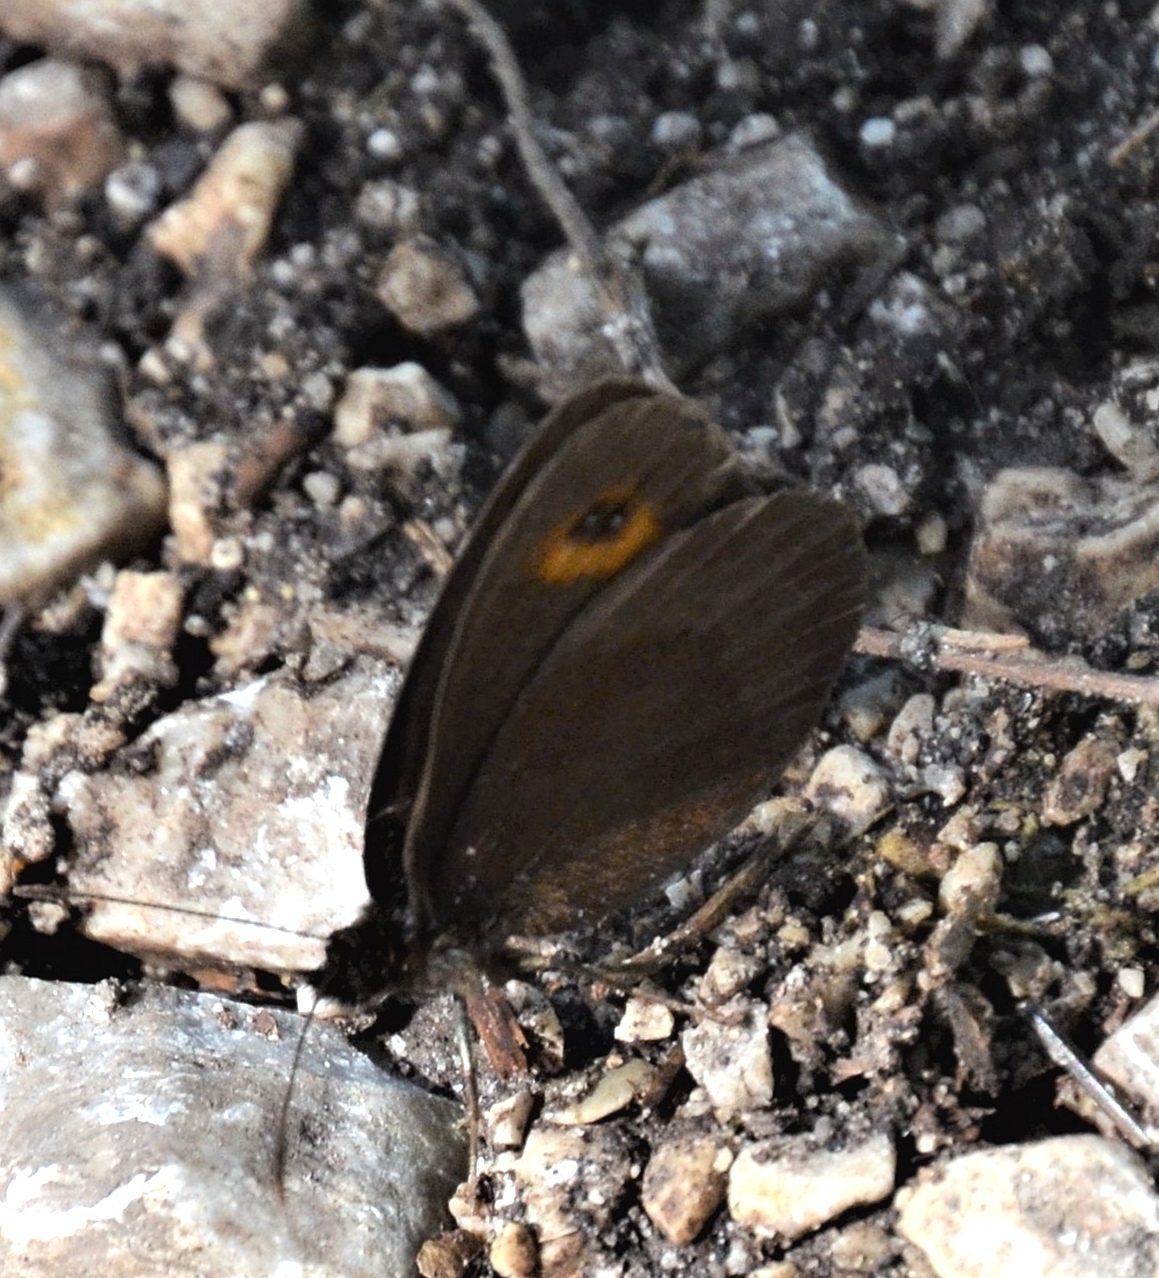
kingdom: Animalia
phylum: Arthropoda
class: Insecta
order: Lepidoptera
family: Nymphalidae
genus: Erebia
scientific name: Erebia aethiops
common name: Scotch argus
